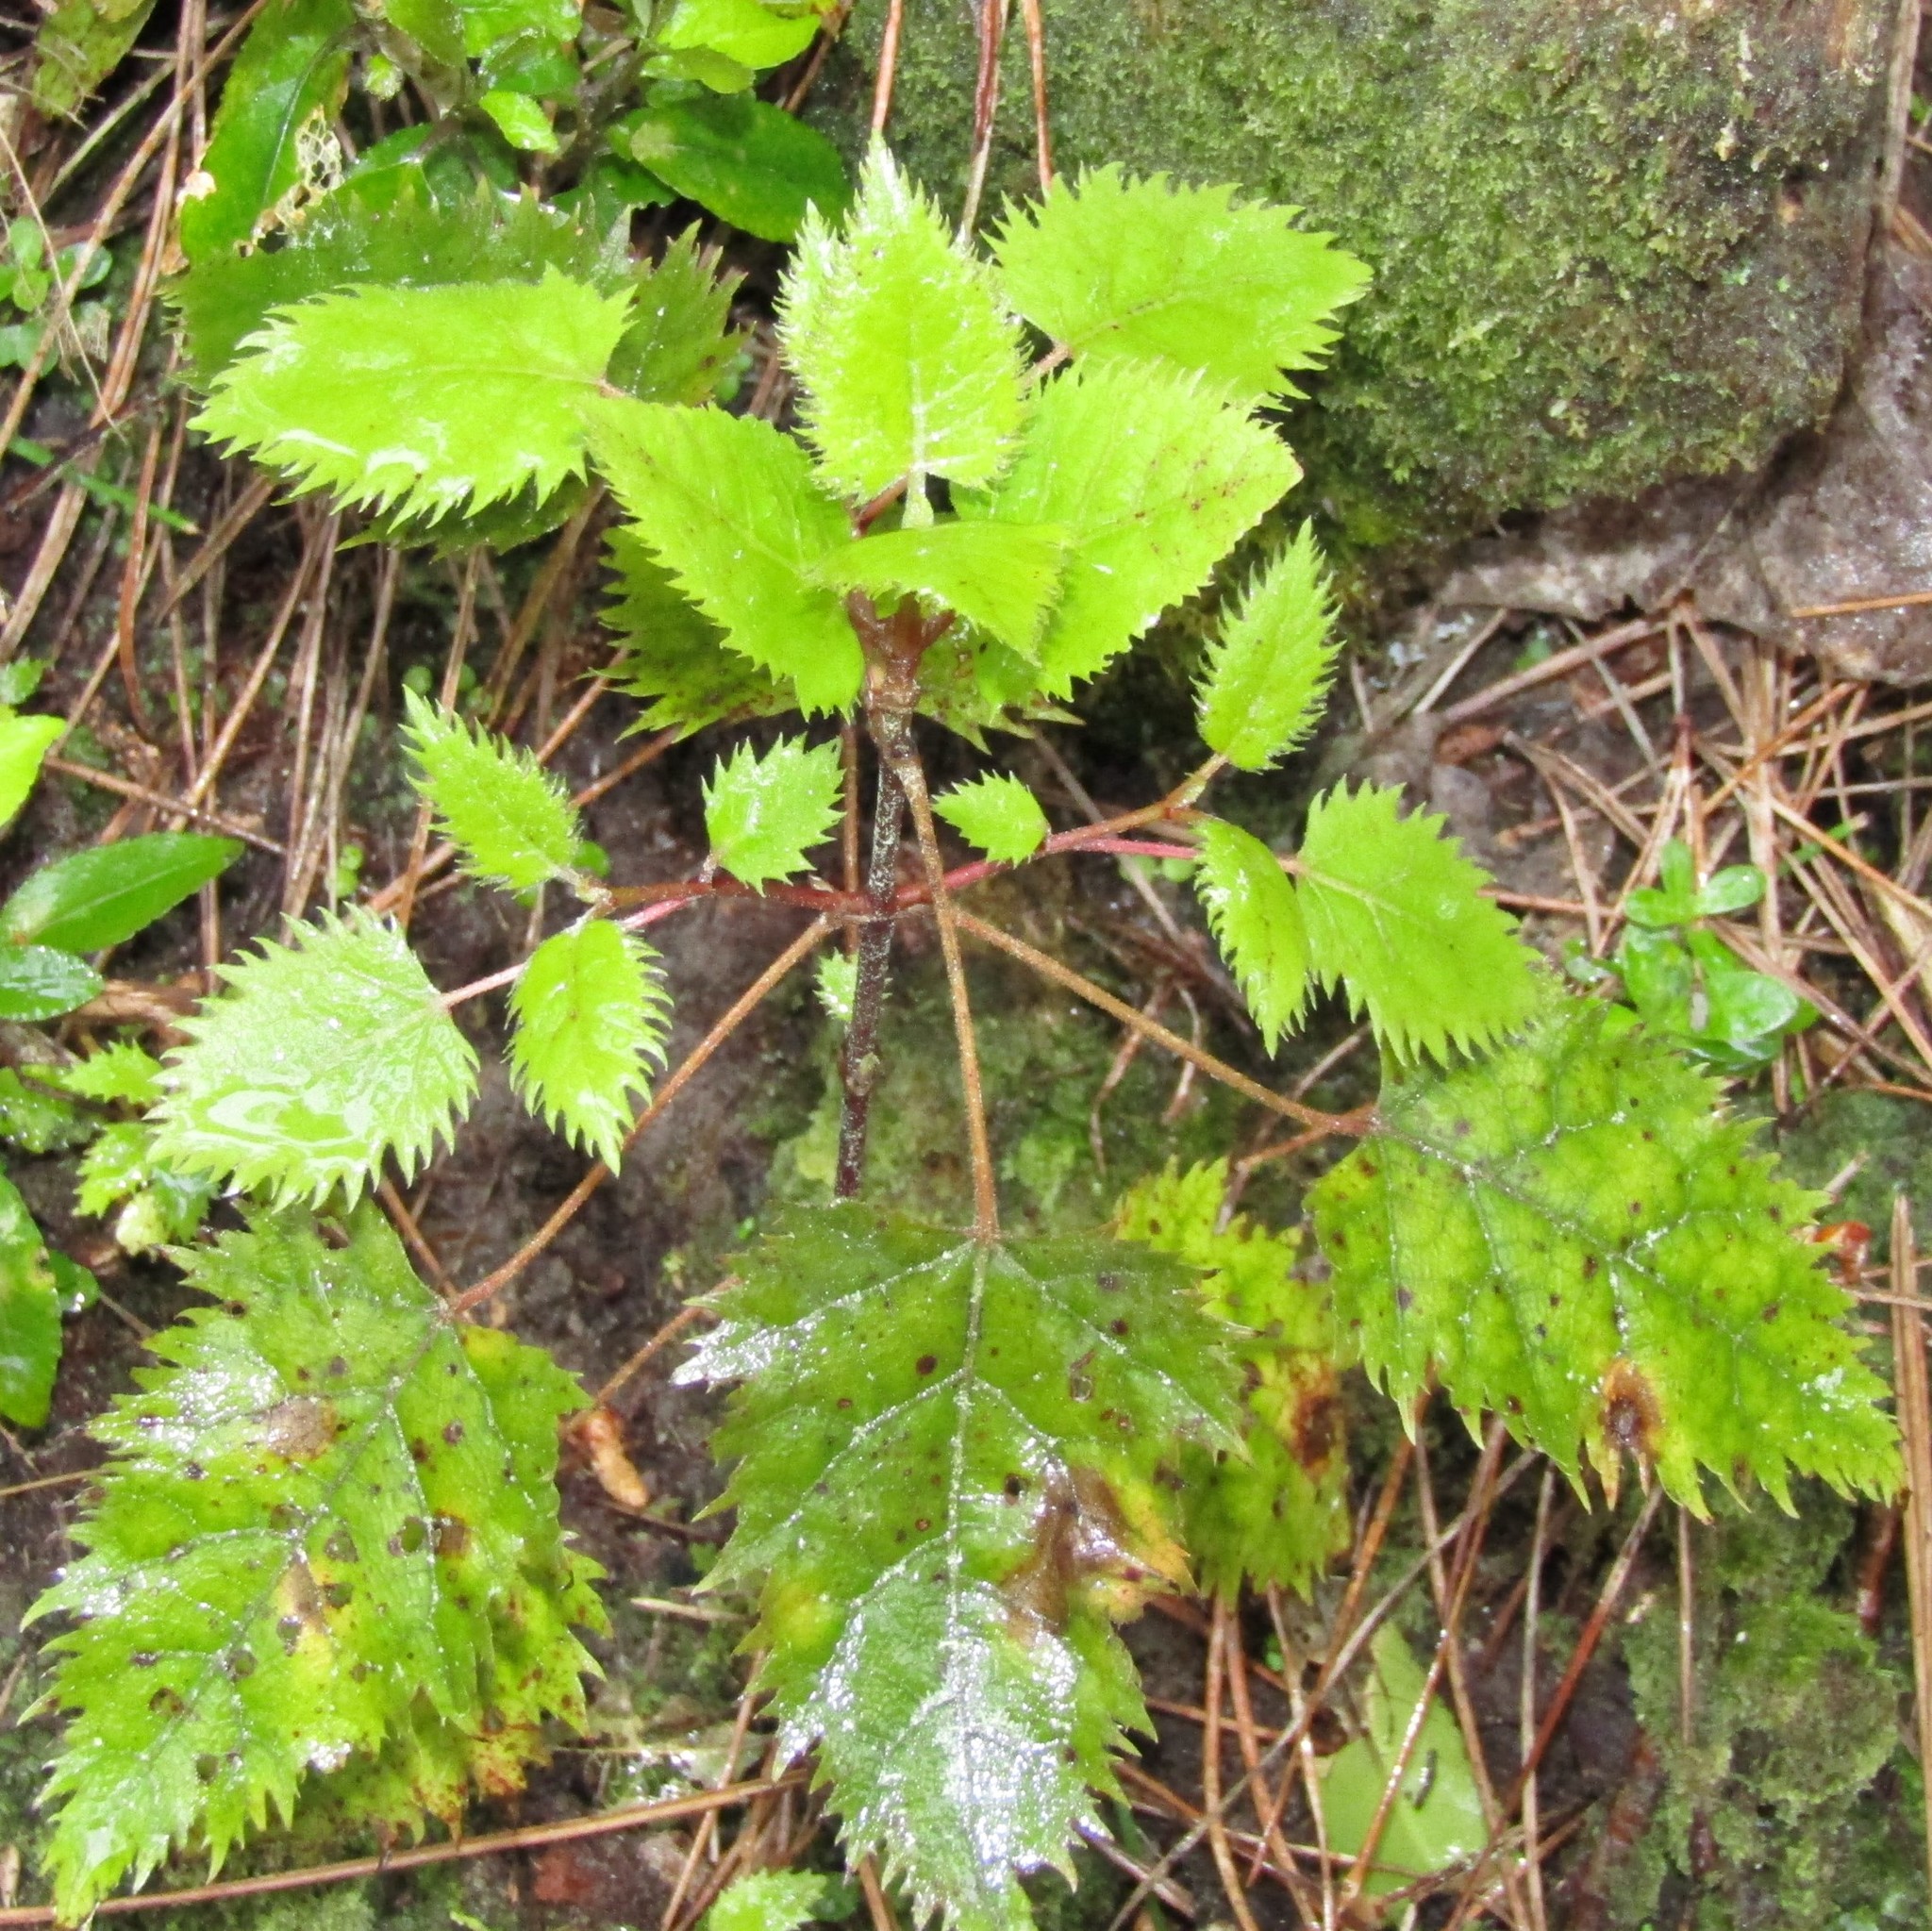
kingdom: Plantae
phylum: Tracheophyta
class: Magnoliopsida
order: Oxalidales
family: Elaeocarpaceae
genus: Aristotelia
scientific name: Aristotelia serrata
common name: New zealand wineberry
